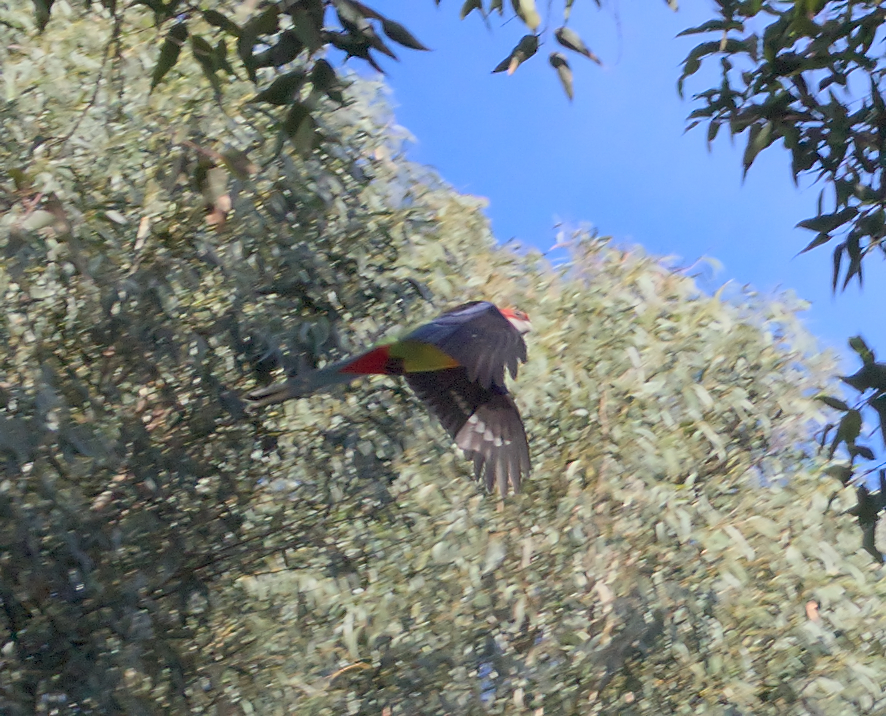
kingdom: Animalia
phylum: Chordata
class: Aves
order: Psittaciformes
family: Psittacidae
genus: Platycercus
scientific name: Platycercus eximius
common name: Eastern rosella
